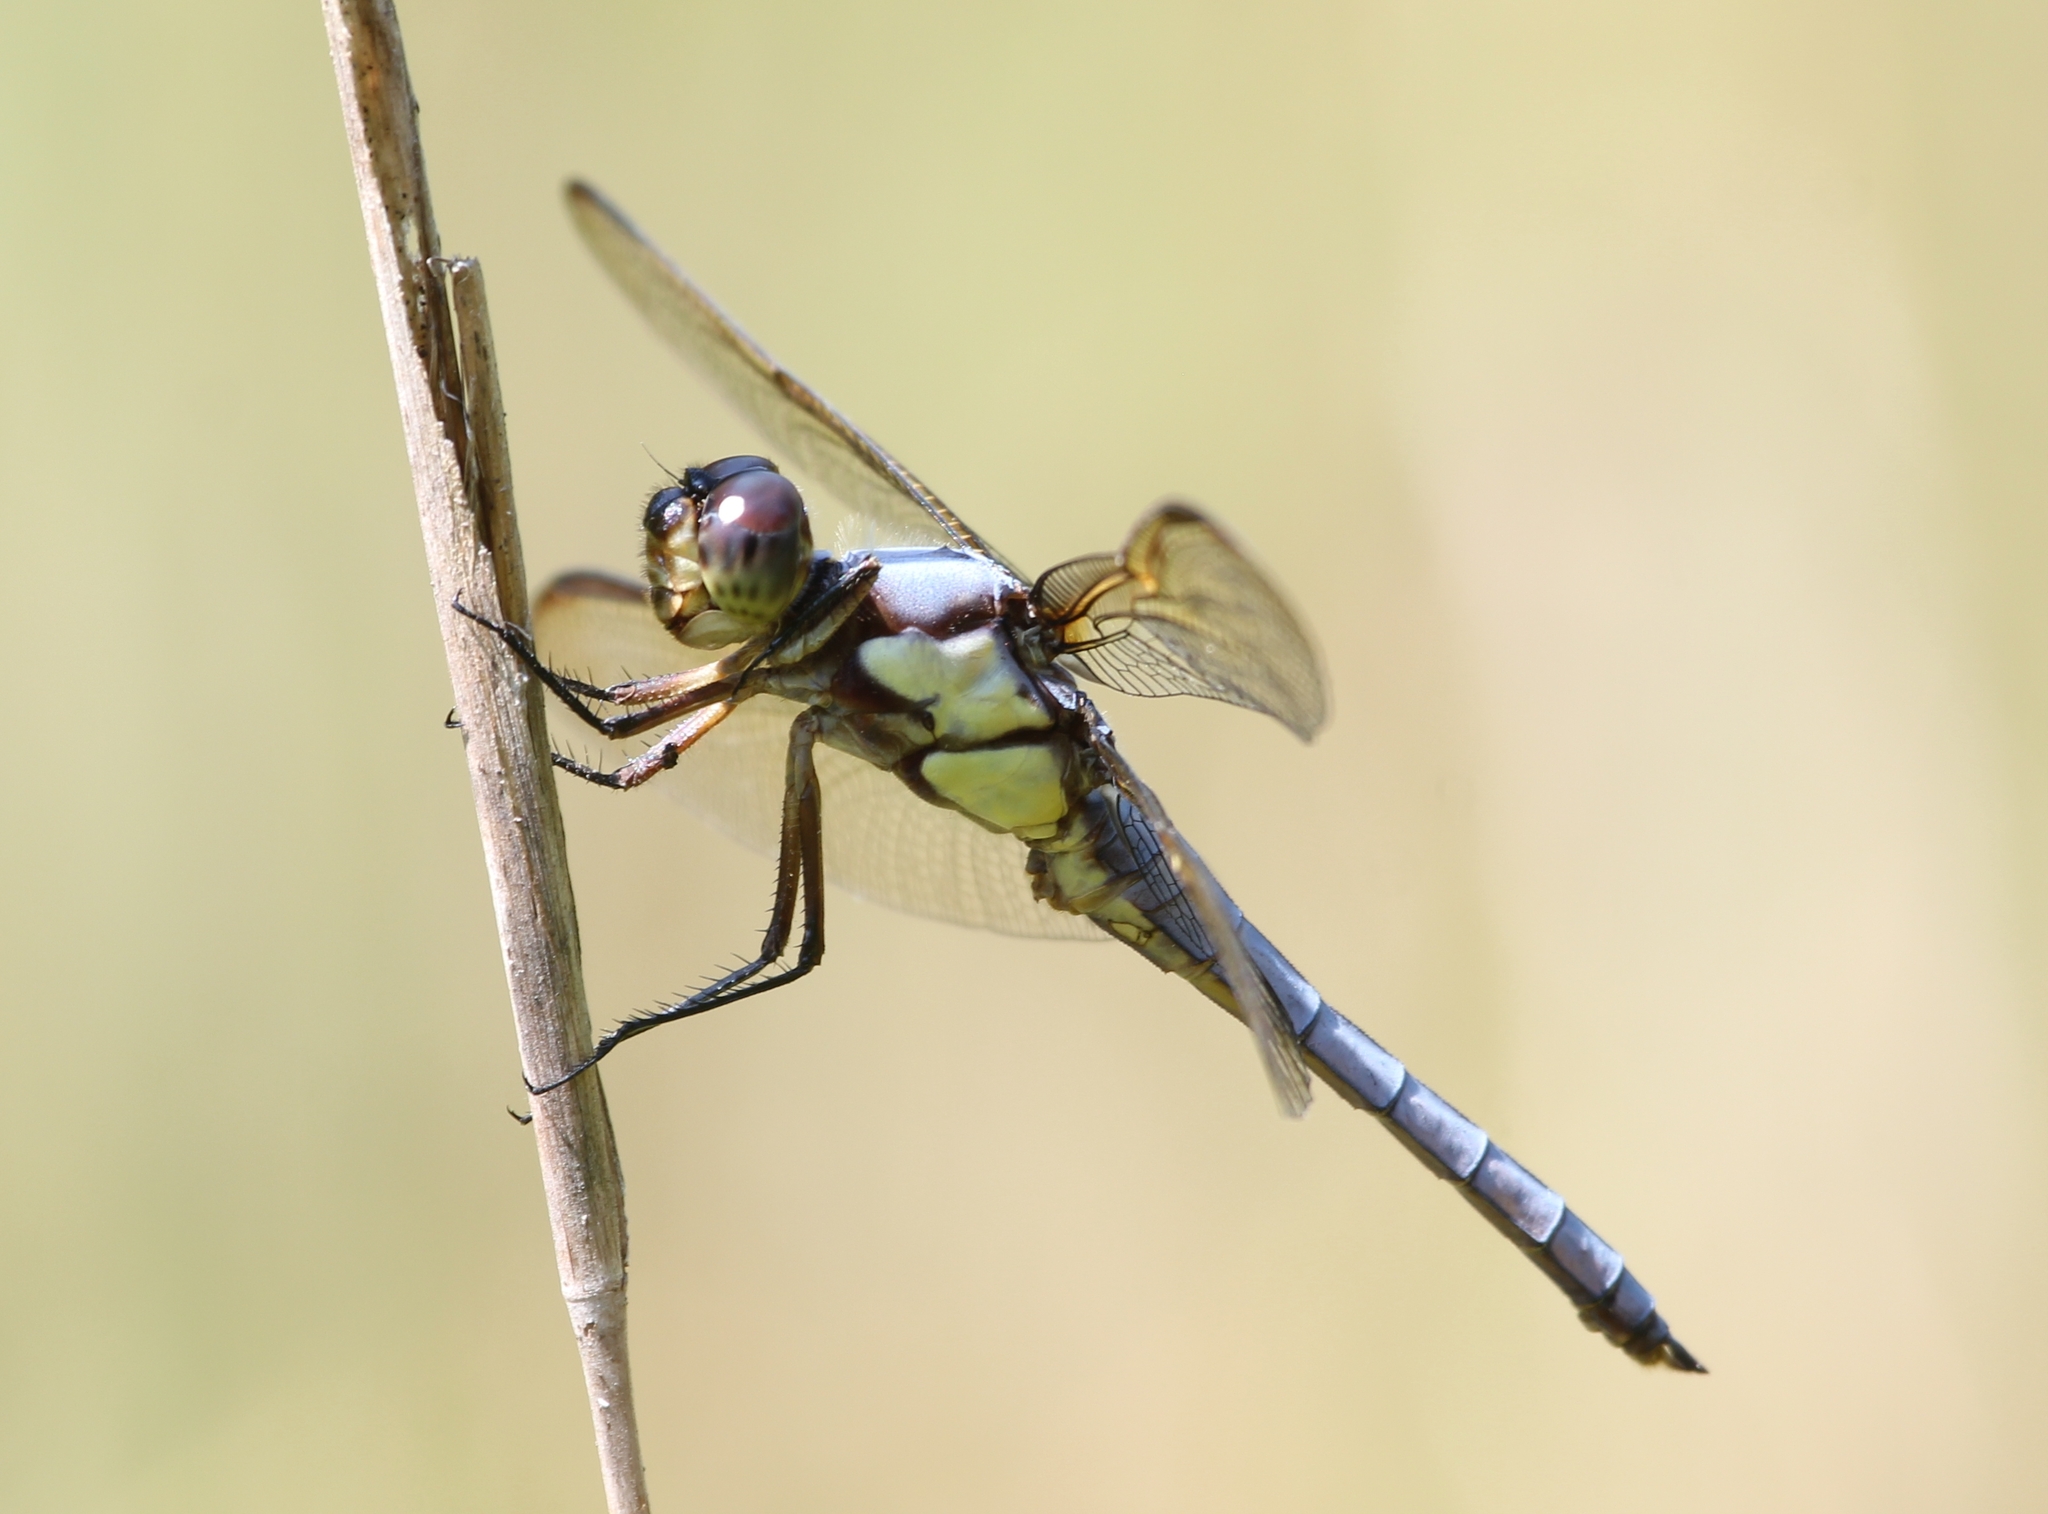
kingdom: Animalia
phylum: Arthropoda
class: Insecta
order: Odonata
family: Libellulidae
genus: Libellula
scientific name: Libellula flavida
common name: Yellow-sided skimmer
